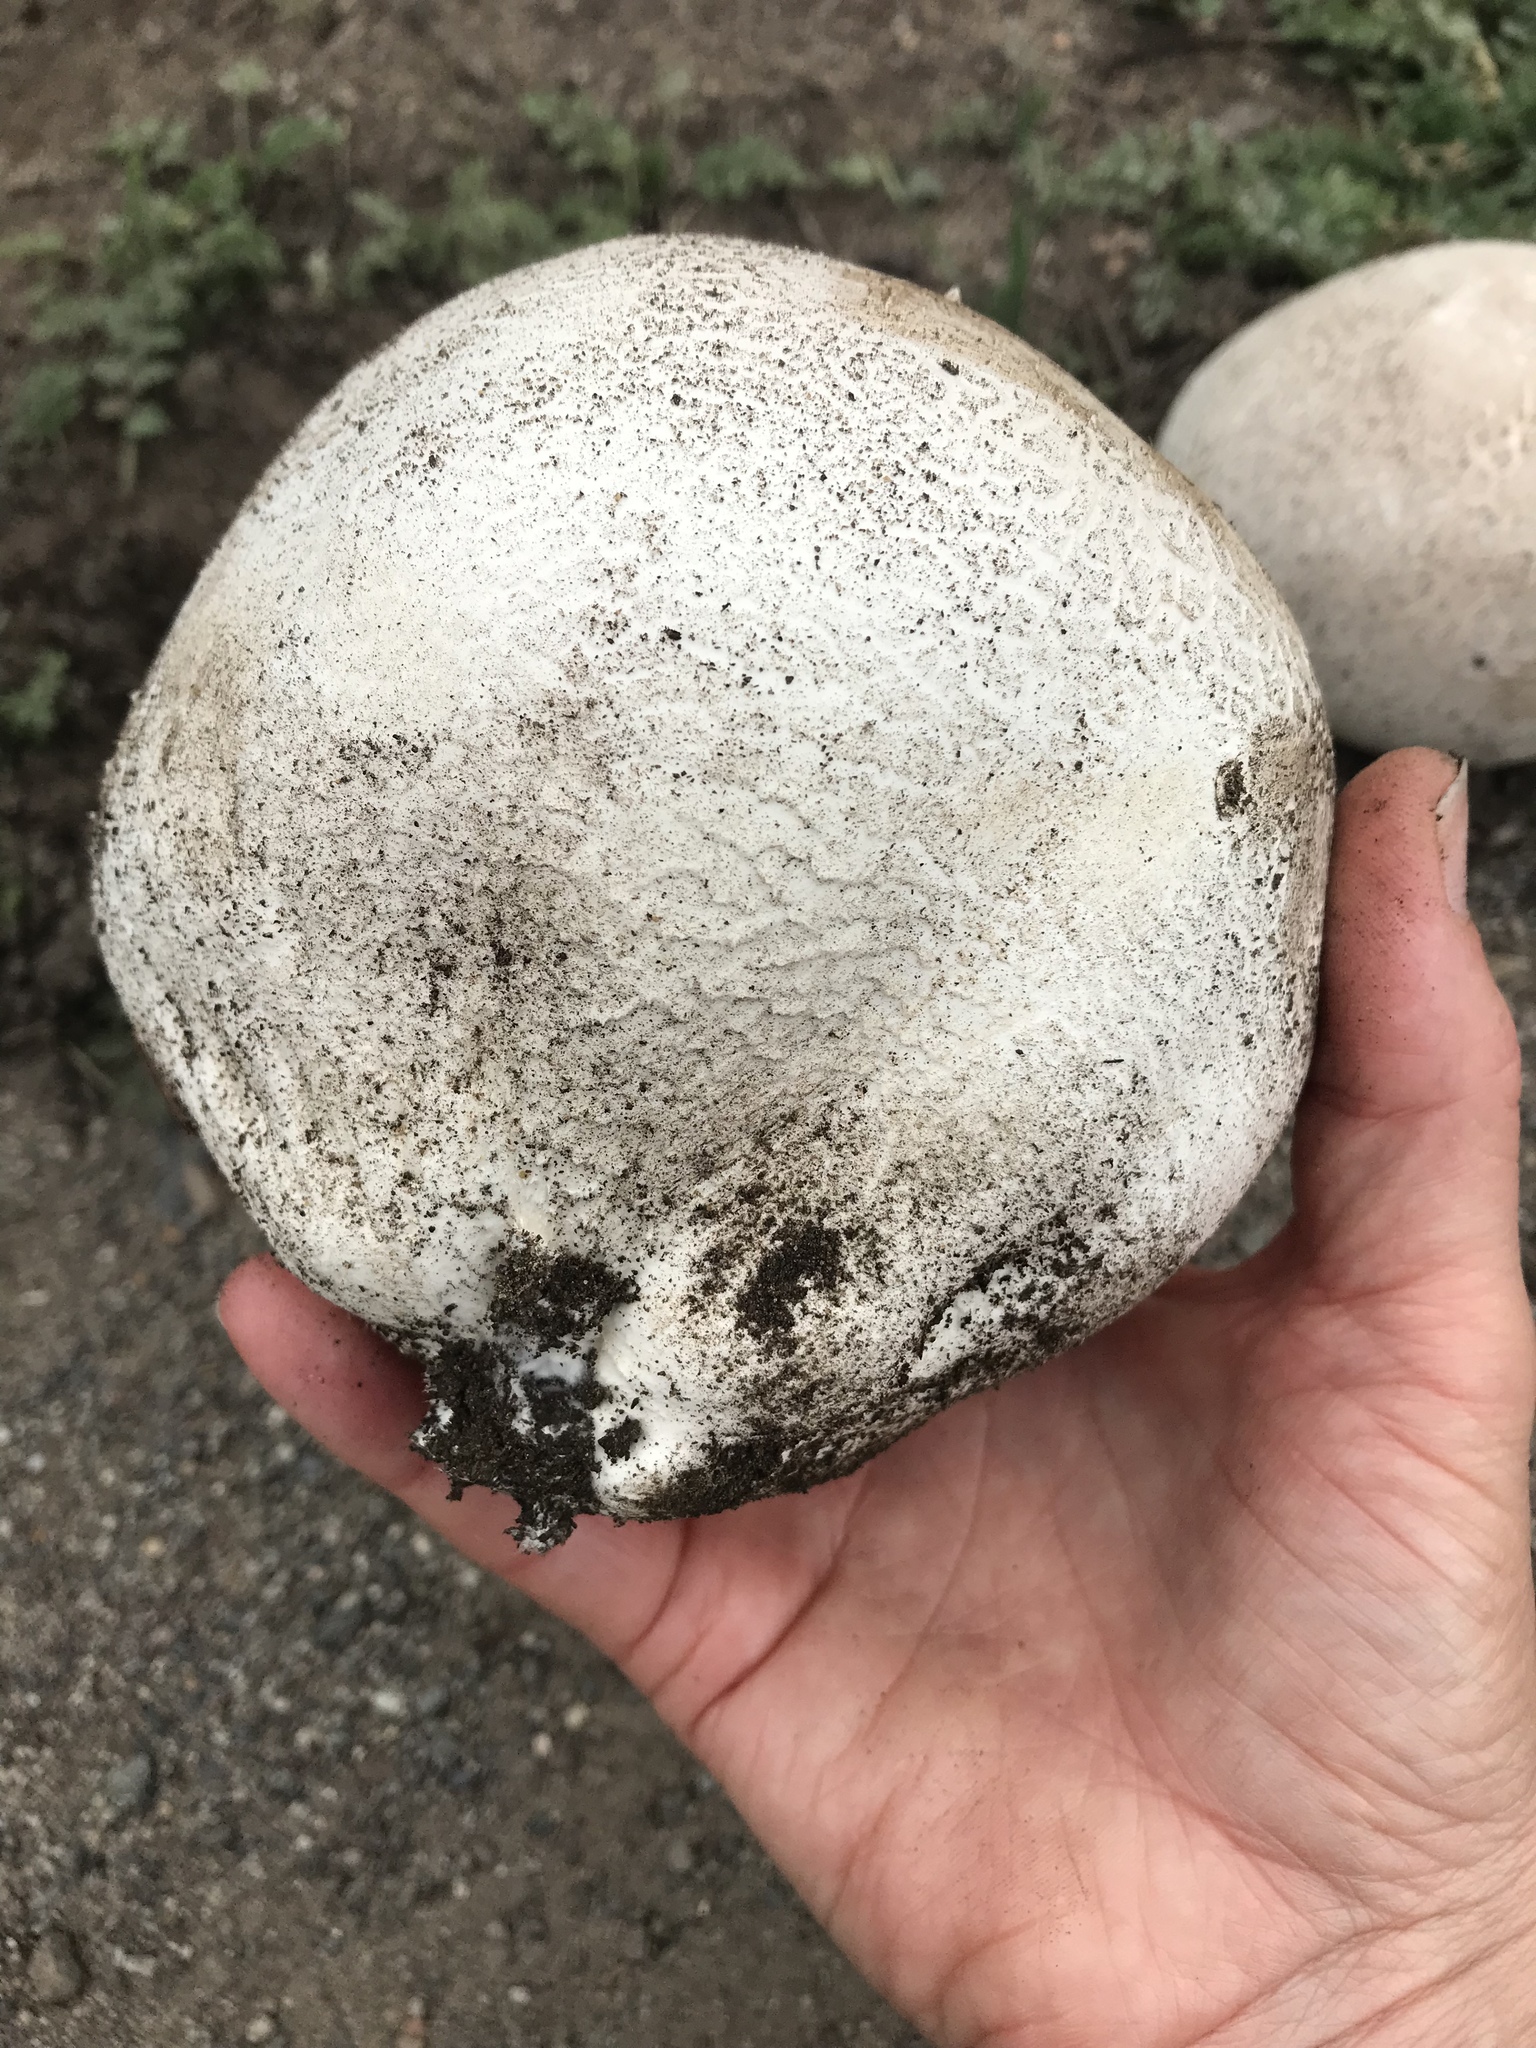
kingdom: Fungi
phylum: Basidiomycota
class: Agaricomycetes
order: Agaricales
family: Lycoperdaceae
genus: Langermannia
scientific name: Langermannia pachyderma
